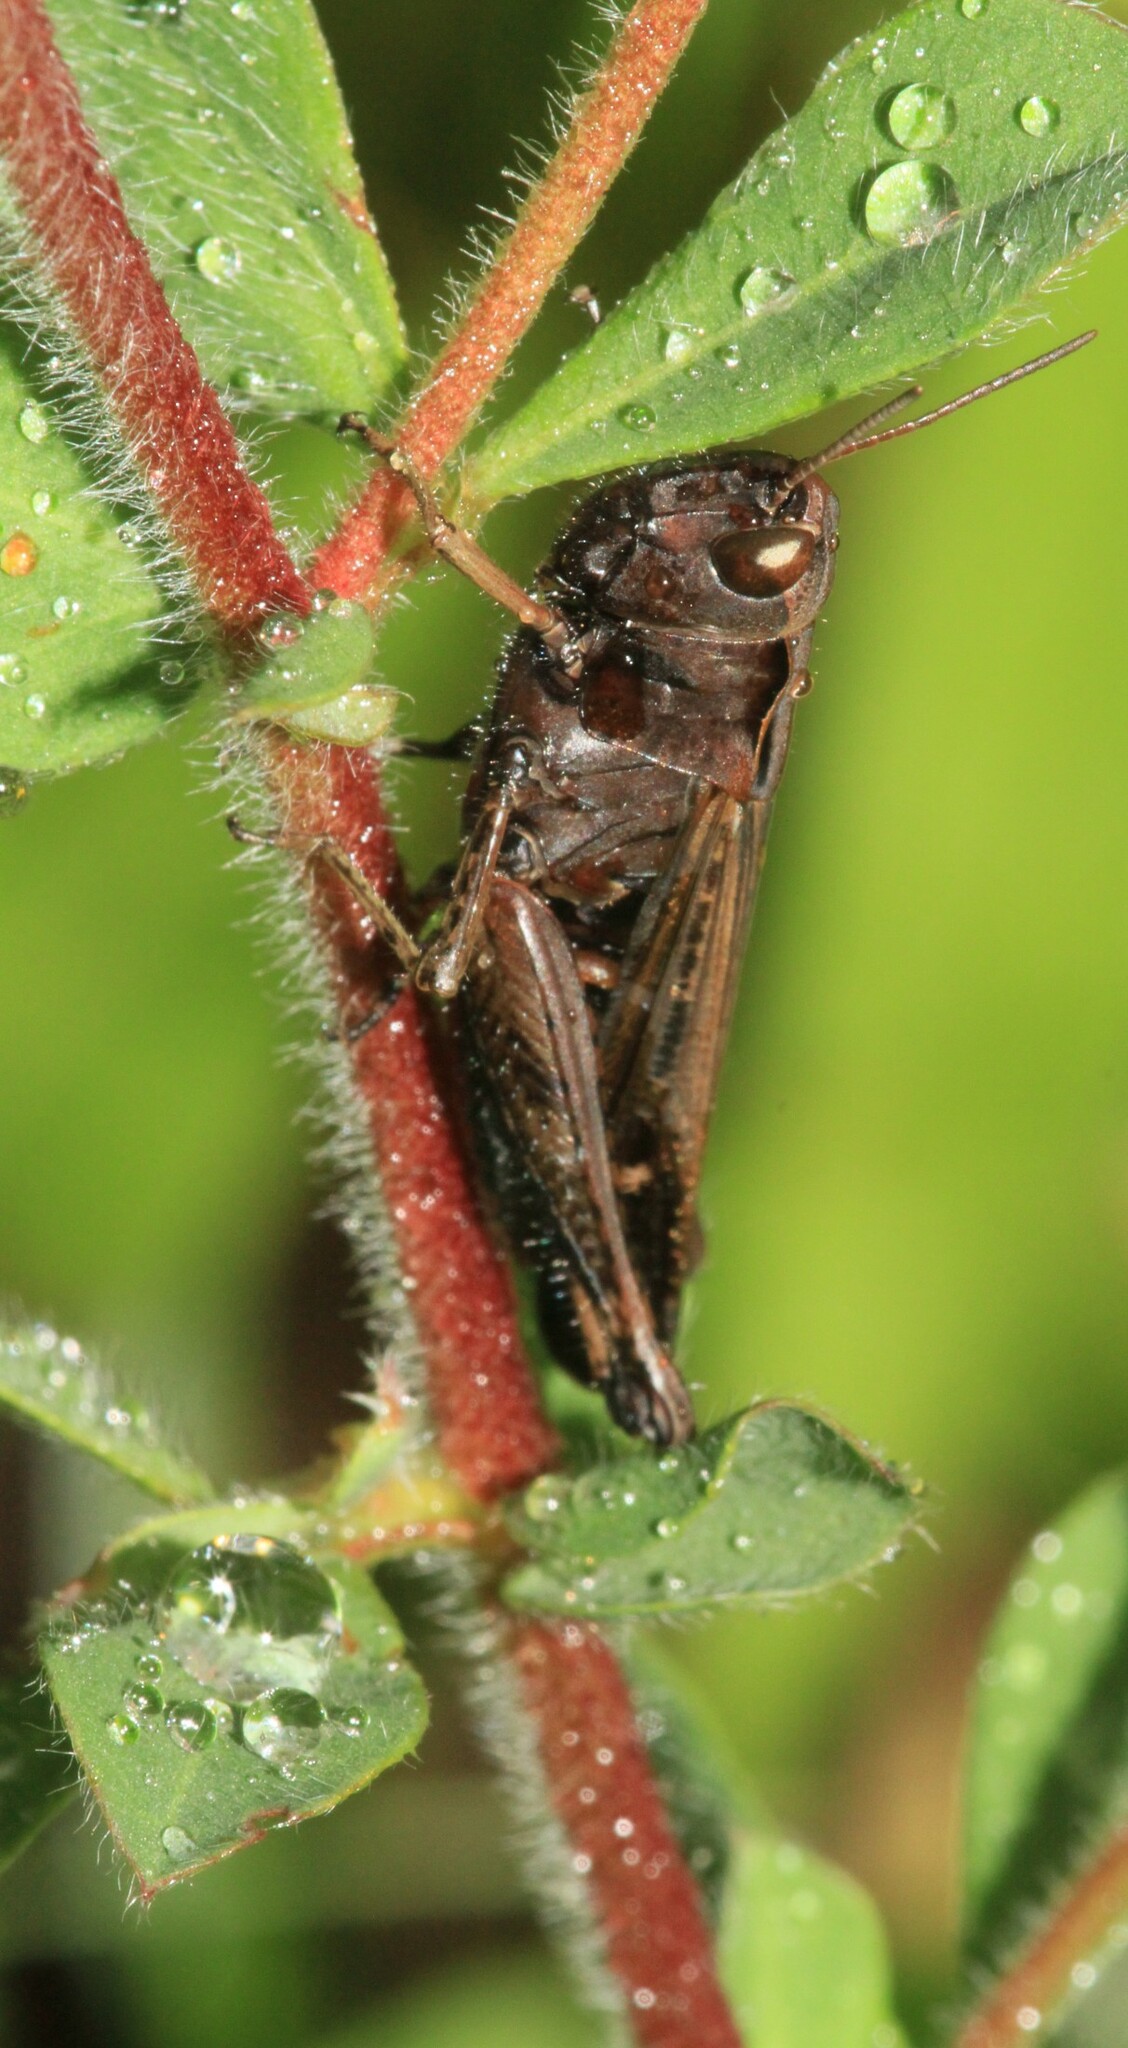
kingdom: Animalia
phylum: Arthropoda
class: Insecta
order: Orthoptera
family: Acrididae
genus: Omocestus
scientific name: Omocestus rufipes
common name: Woodland grasshopper
